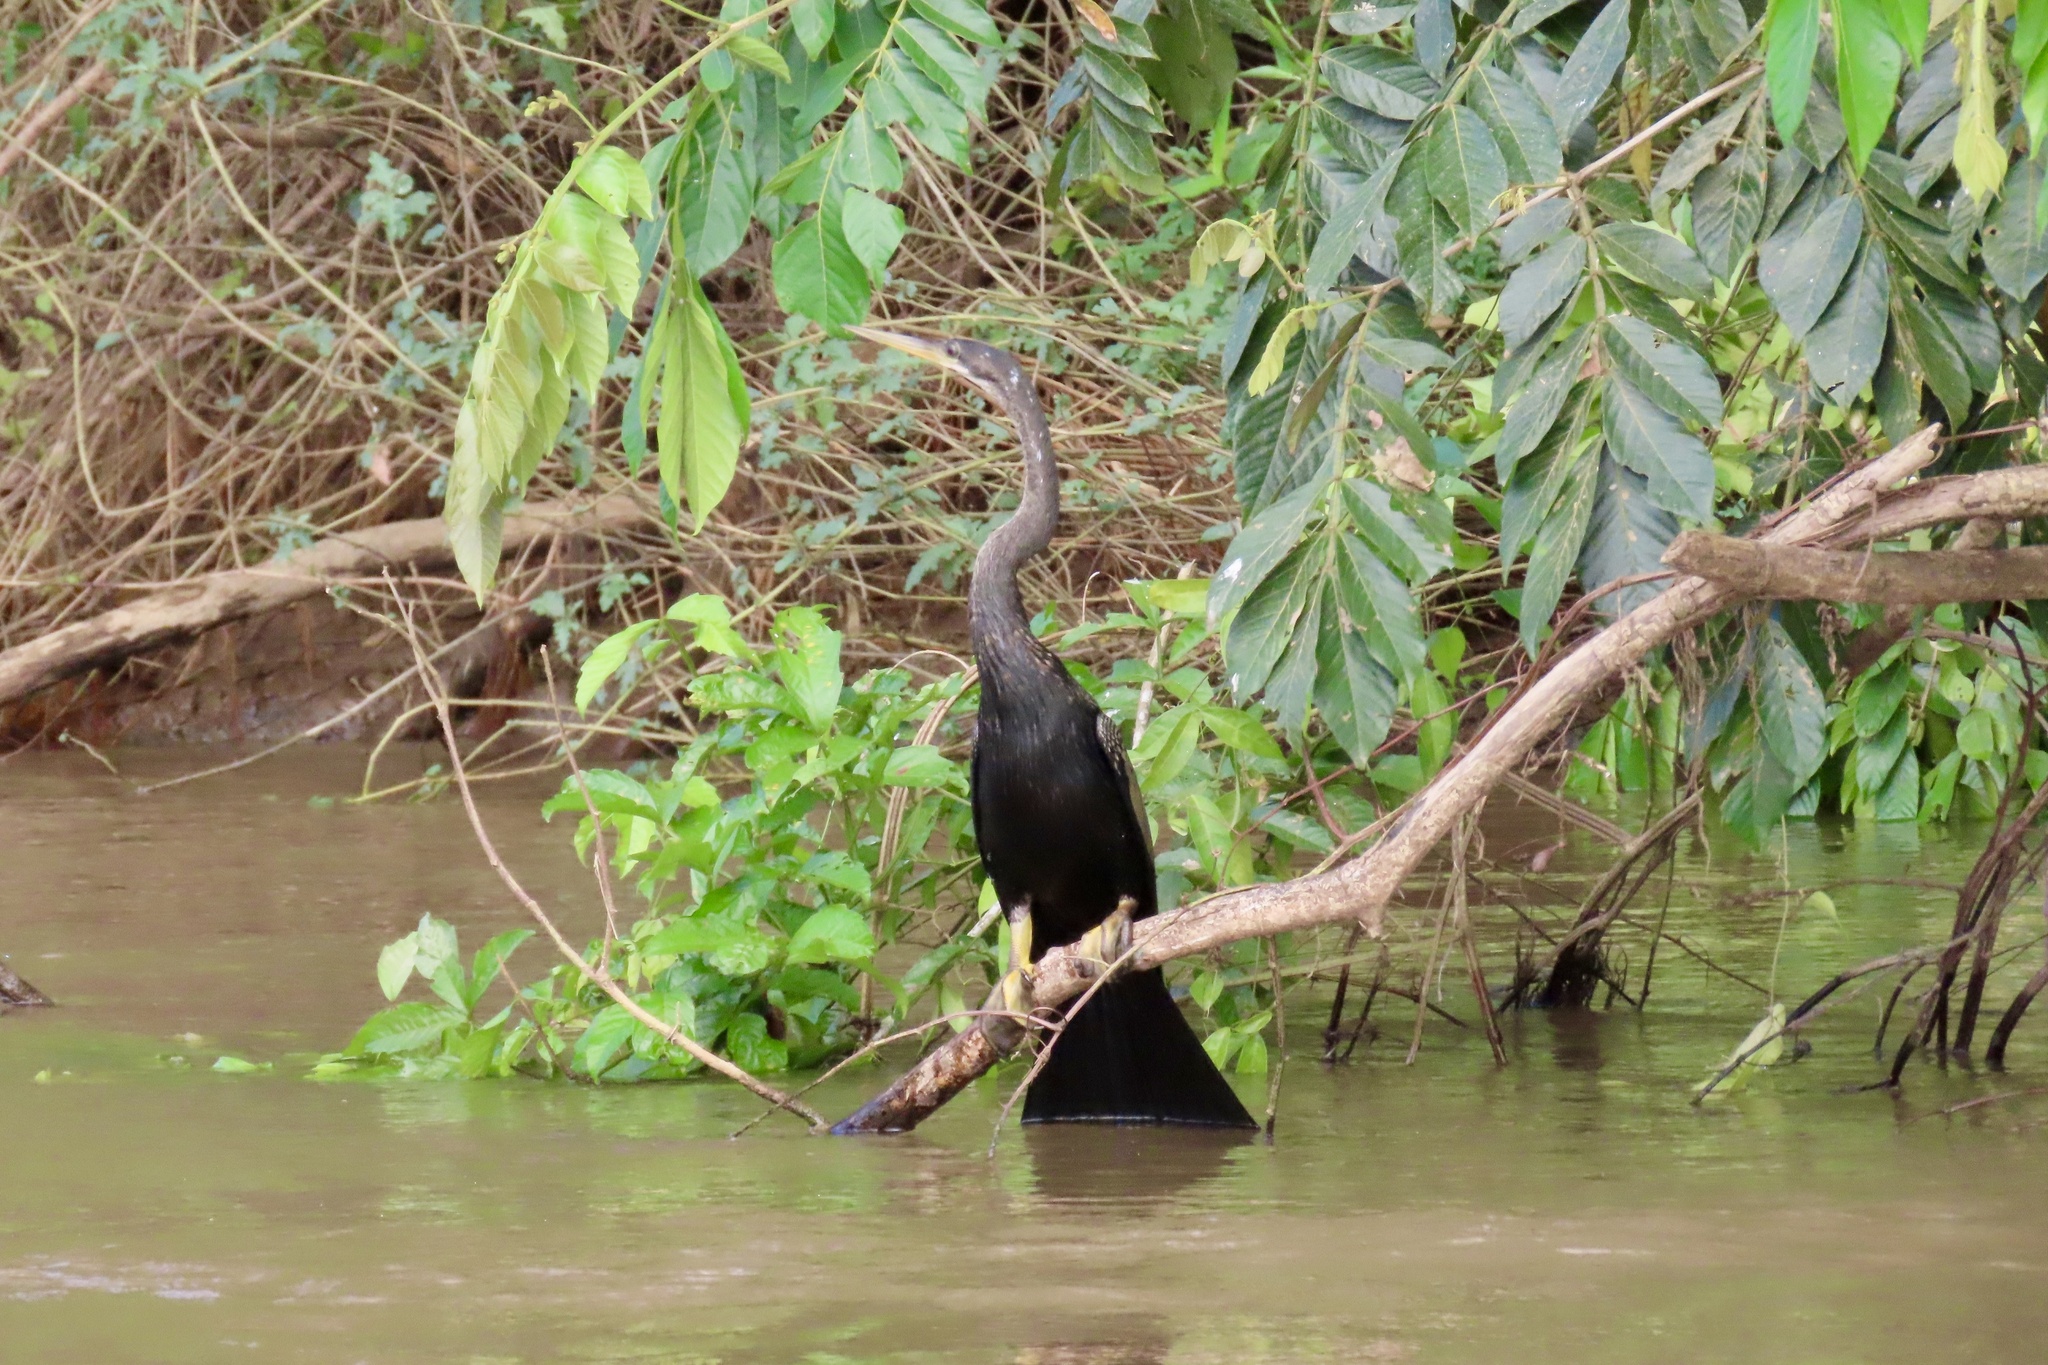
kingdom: Animalia
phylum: Chordata
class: Aves
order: Suliformes
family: Anhingidae
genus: Anhinga
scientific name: Anhinga anhinga
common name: Anhinga
